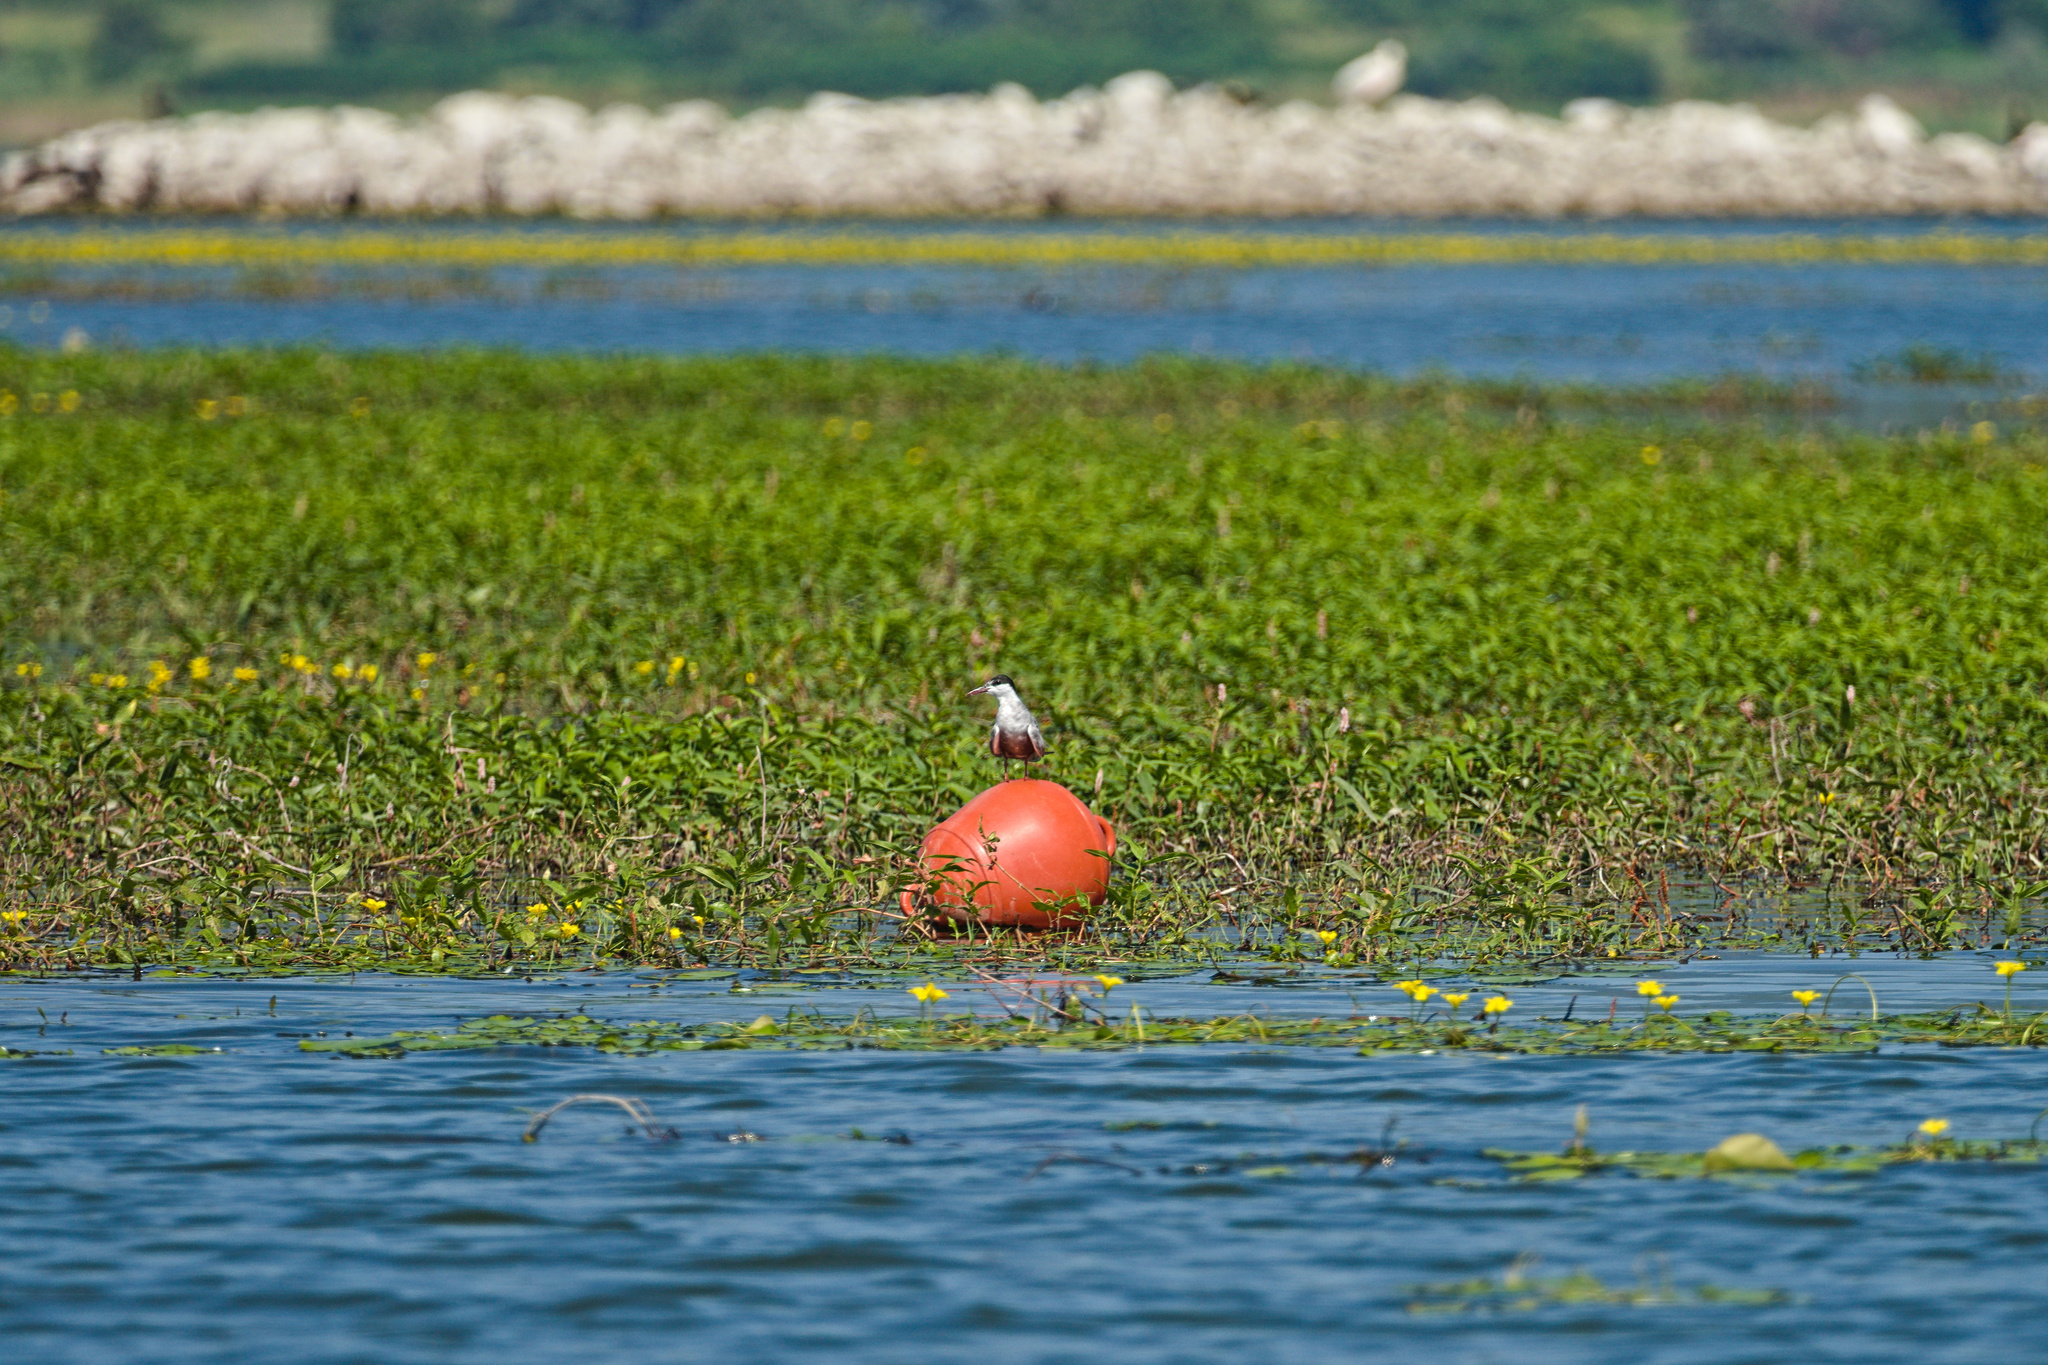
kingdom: Animalia
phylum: Chordata
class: Aves
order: Charadriiformes
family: Laridae
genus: Sterna
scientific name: Sterna hirundo
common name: Common tern
